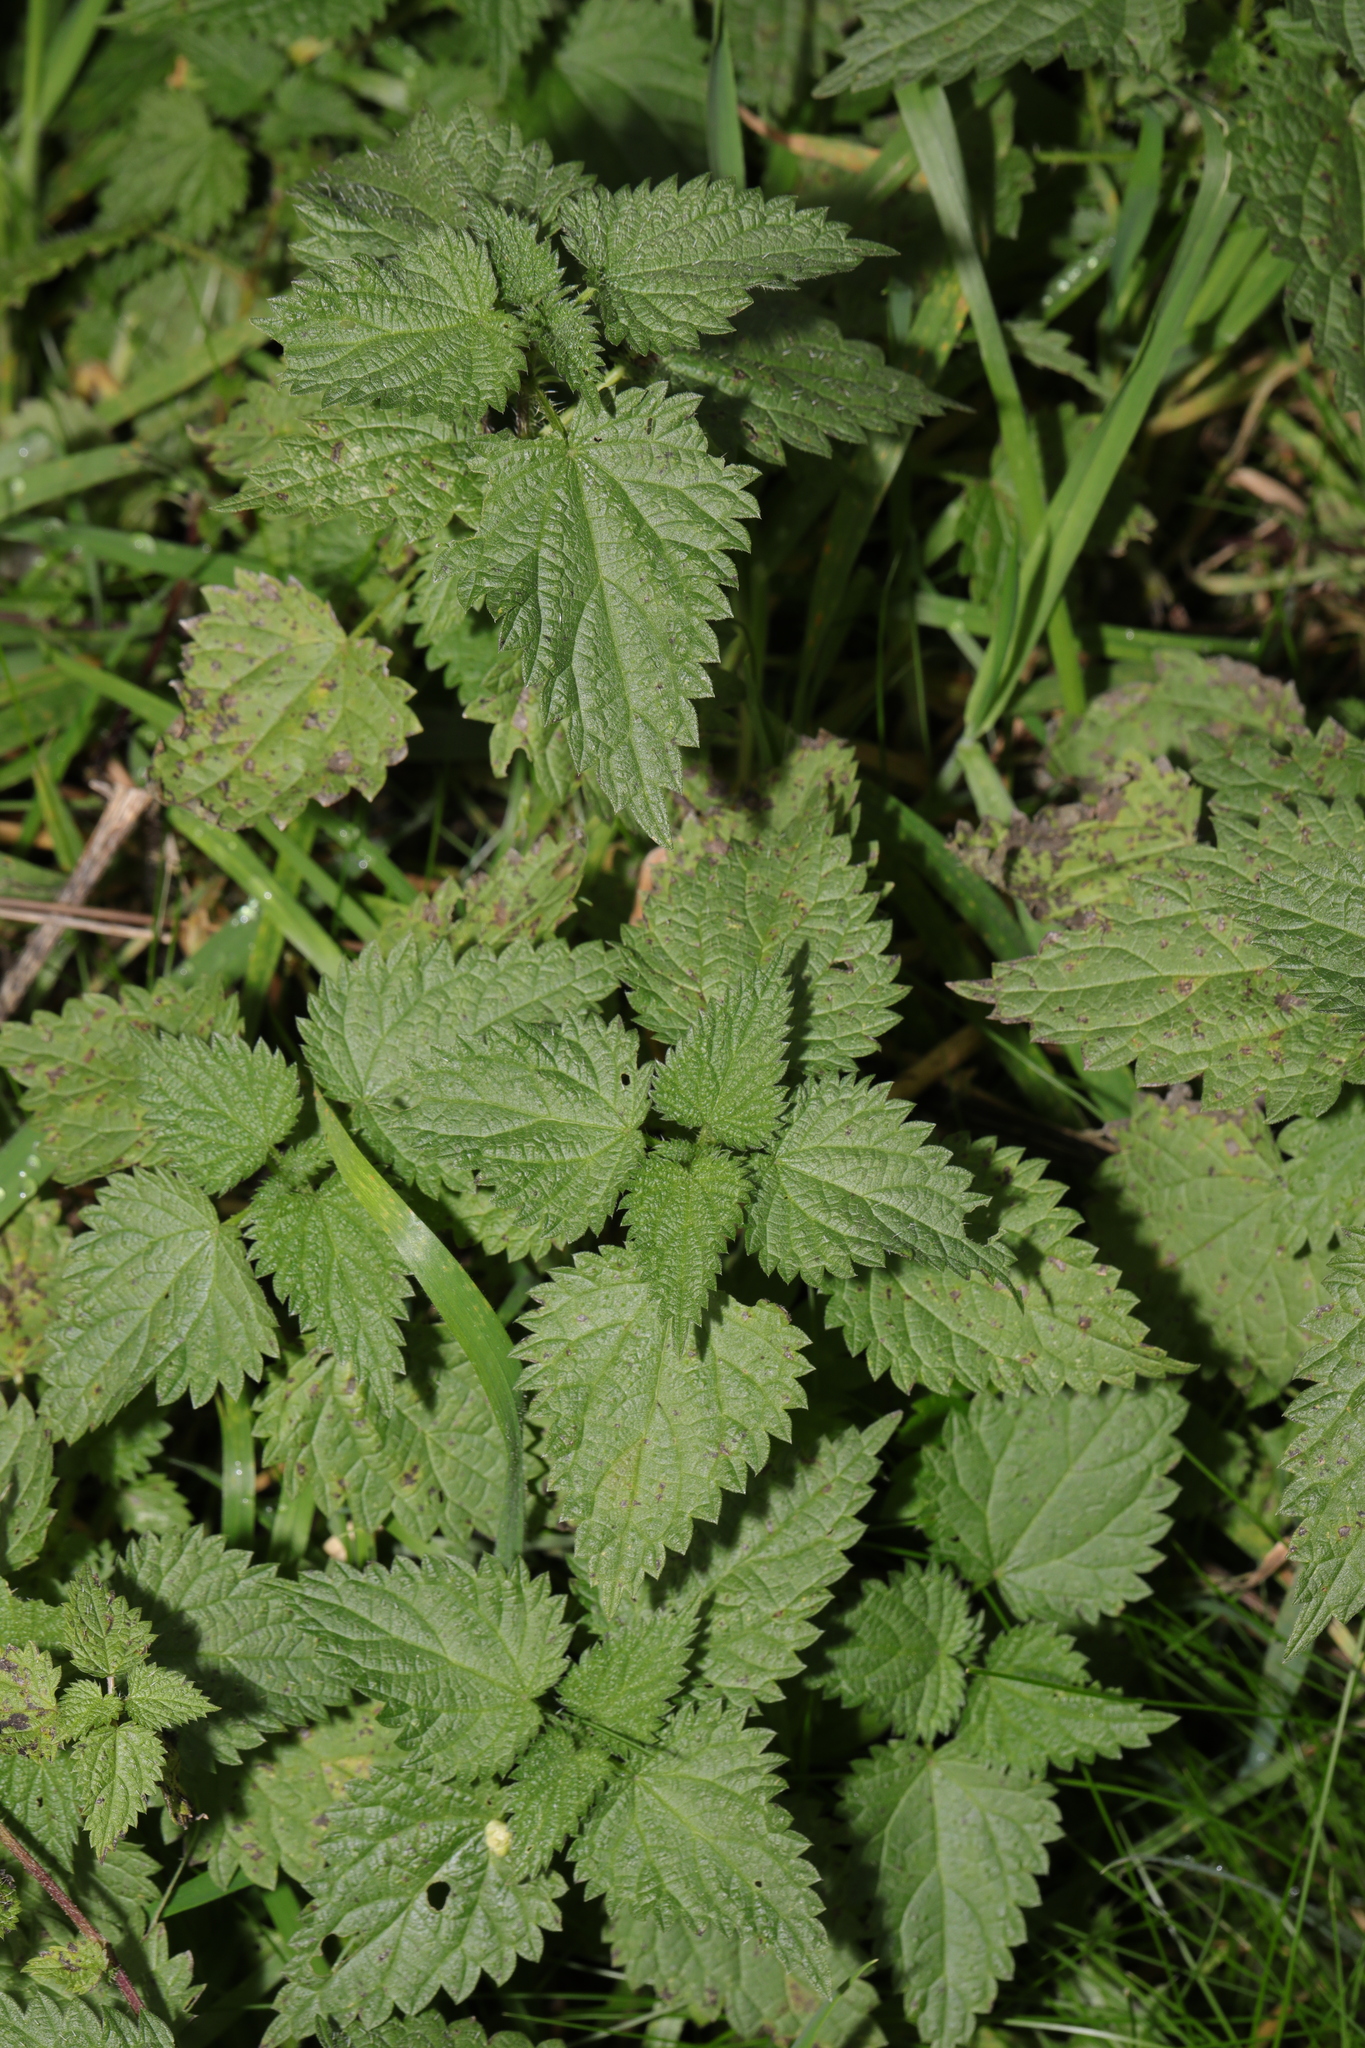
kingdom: Plantae
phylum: Tracheophyta
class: Magnoliopsida
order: Rosales
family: Urticaceae
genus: Urtica
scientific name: Urtica dioica
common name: Common nettle
